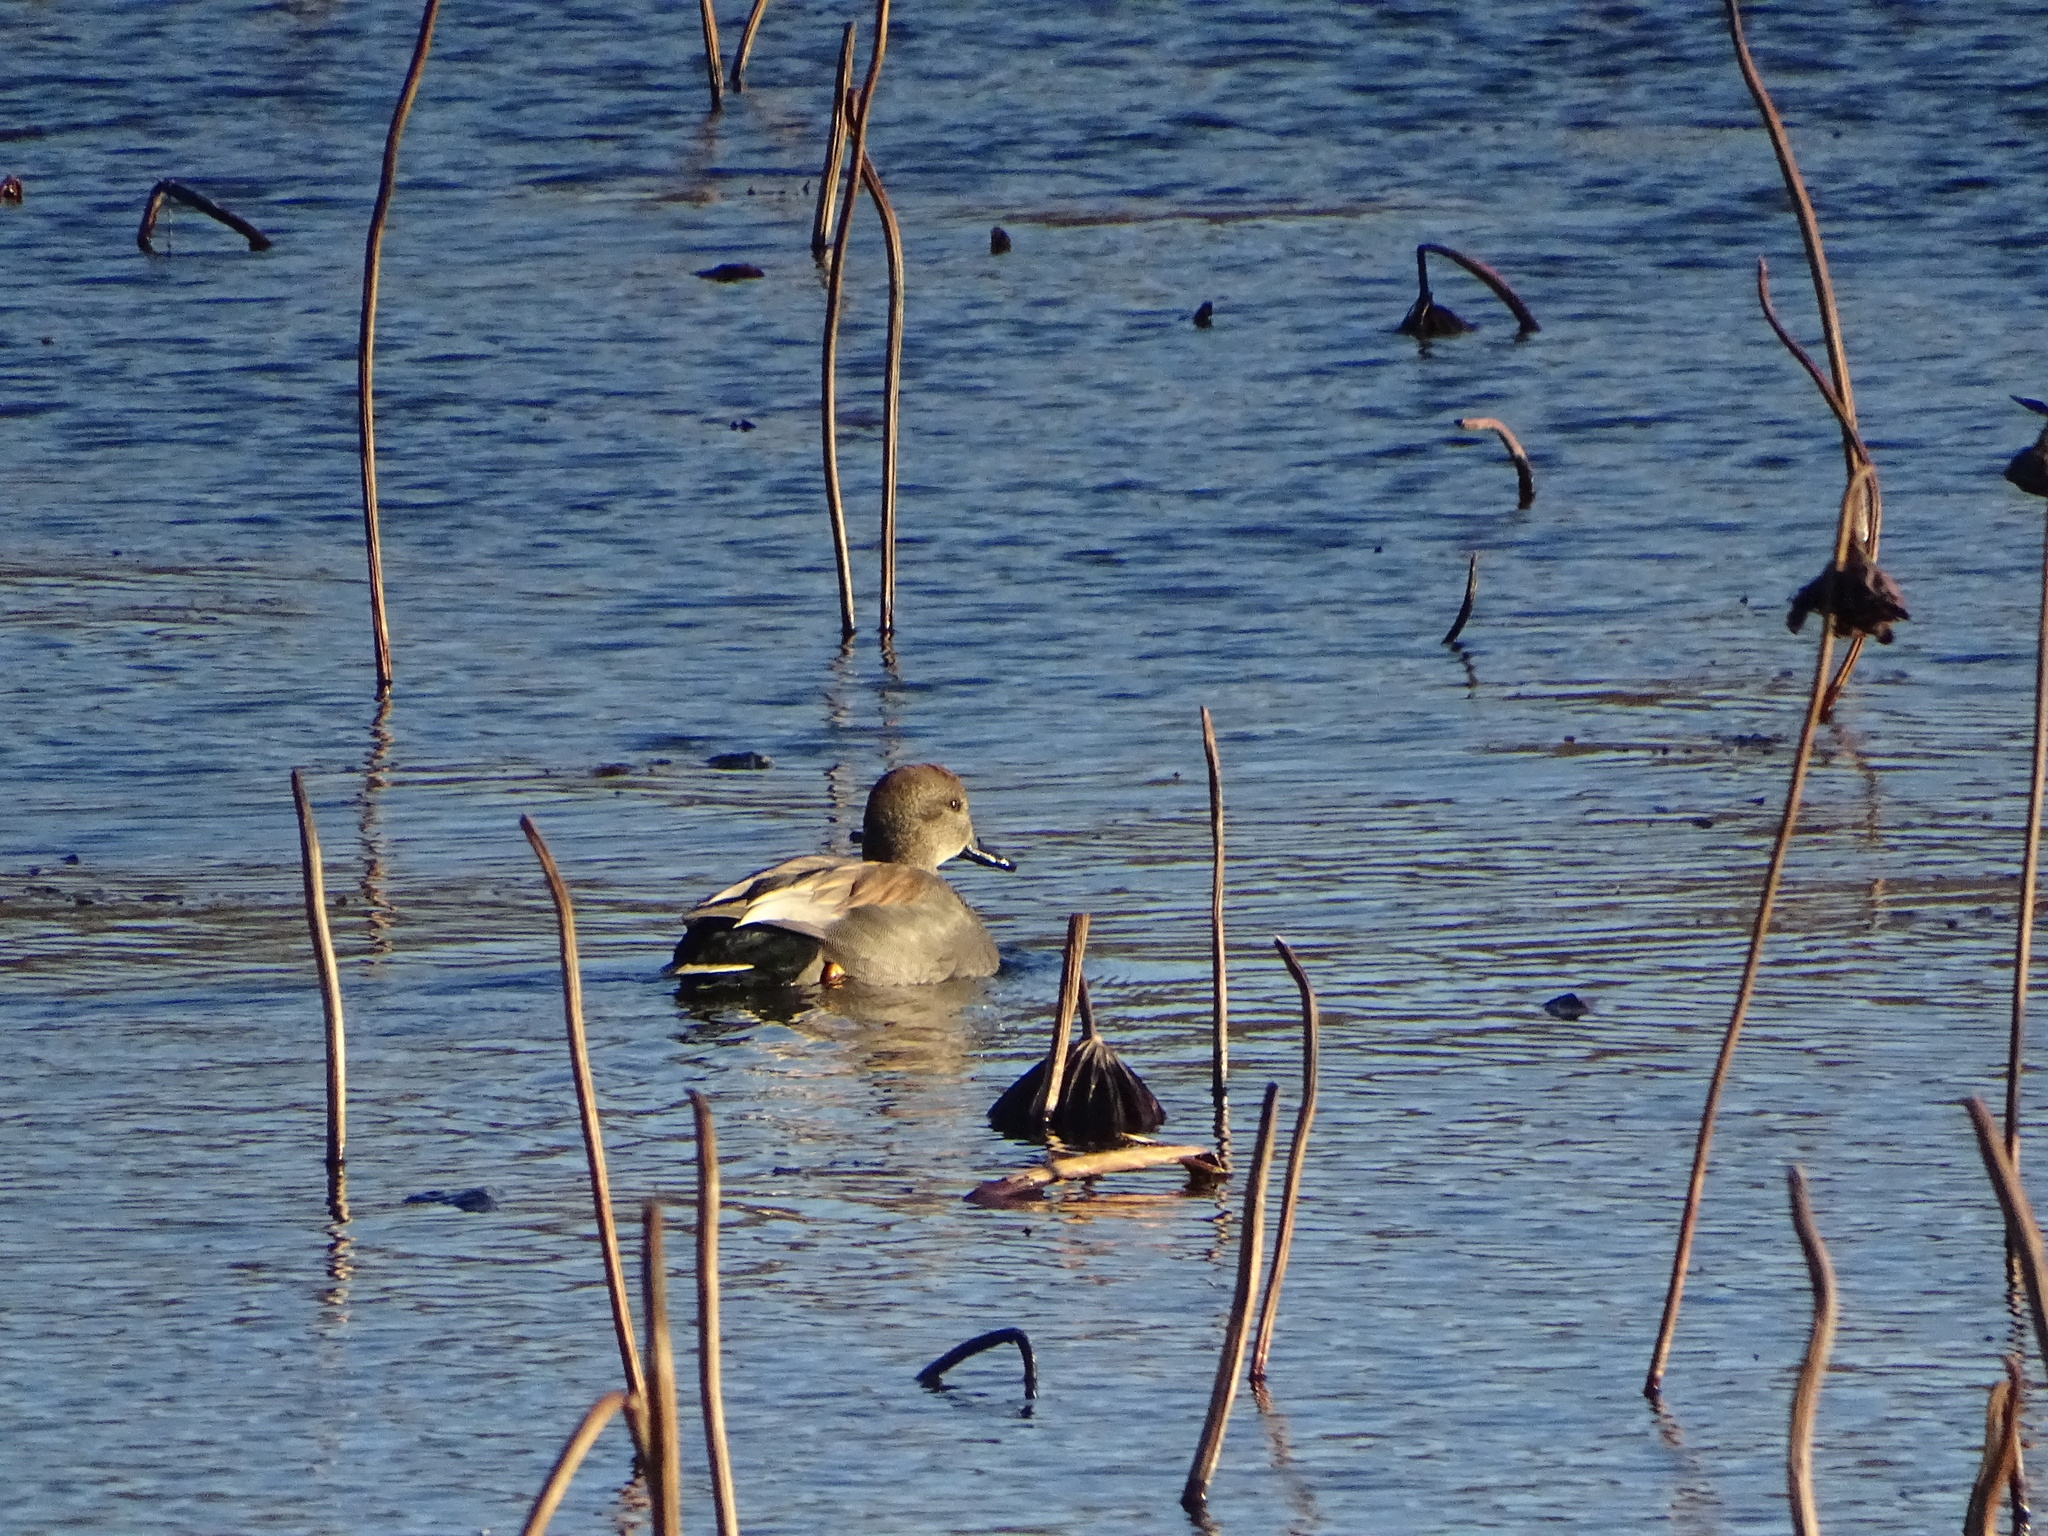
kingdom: Animalia
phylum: Chordata
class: Aves
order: Anseriformes
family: Anatidae
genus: Mareca
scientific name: Mareca strepera
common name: Gadwall
